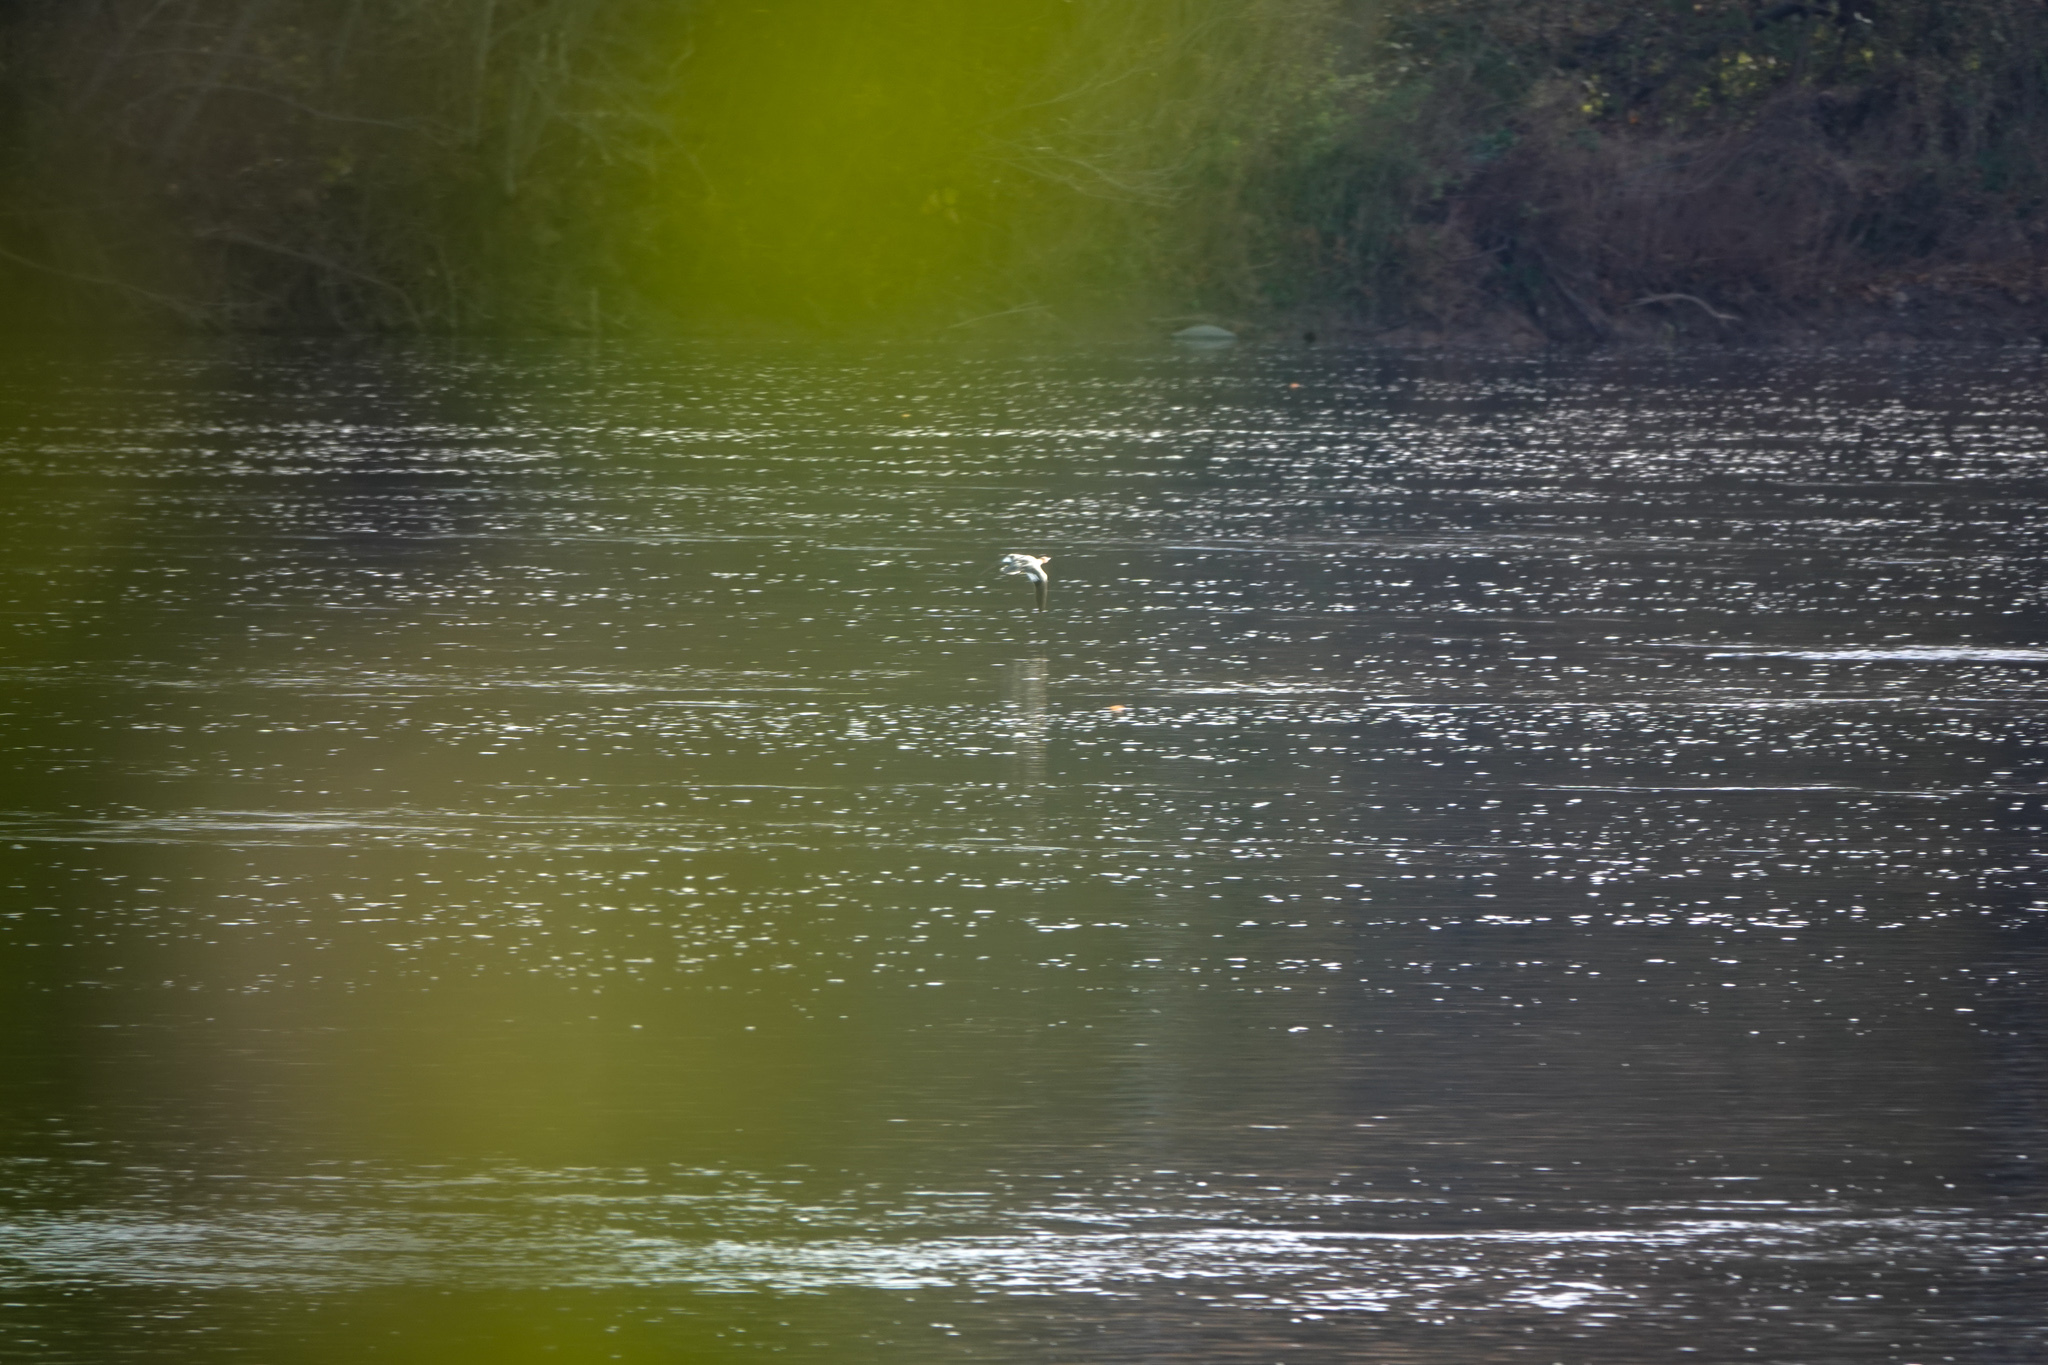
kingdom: Animalia
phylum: Chordata
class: Aves
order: Anseriformes
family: Anatidae
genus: Mergus
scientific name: Mergus merganser
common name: Common merganser
